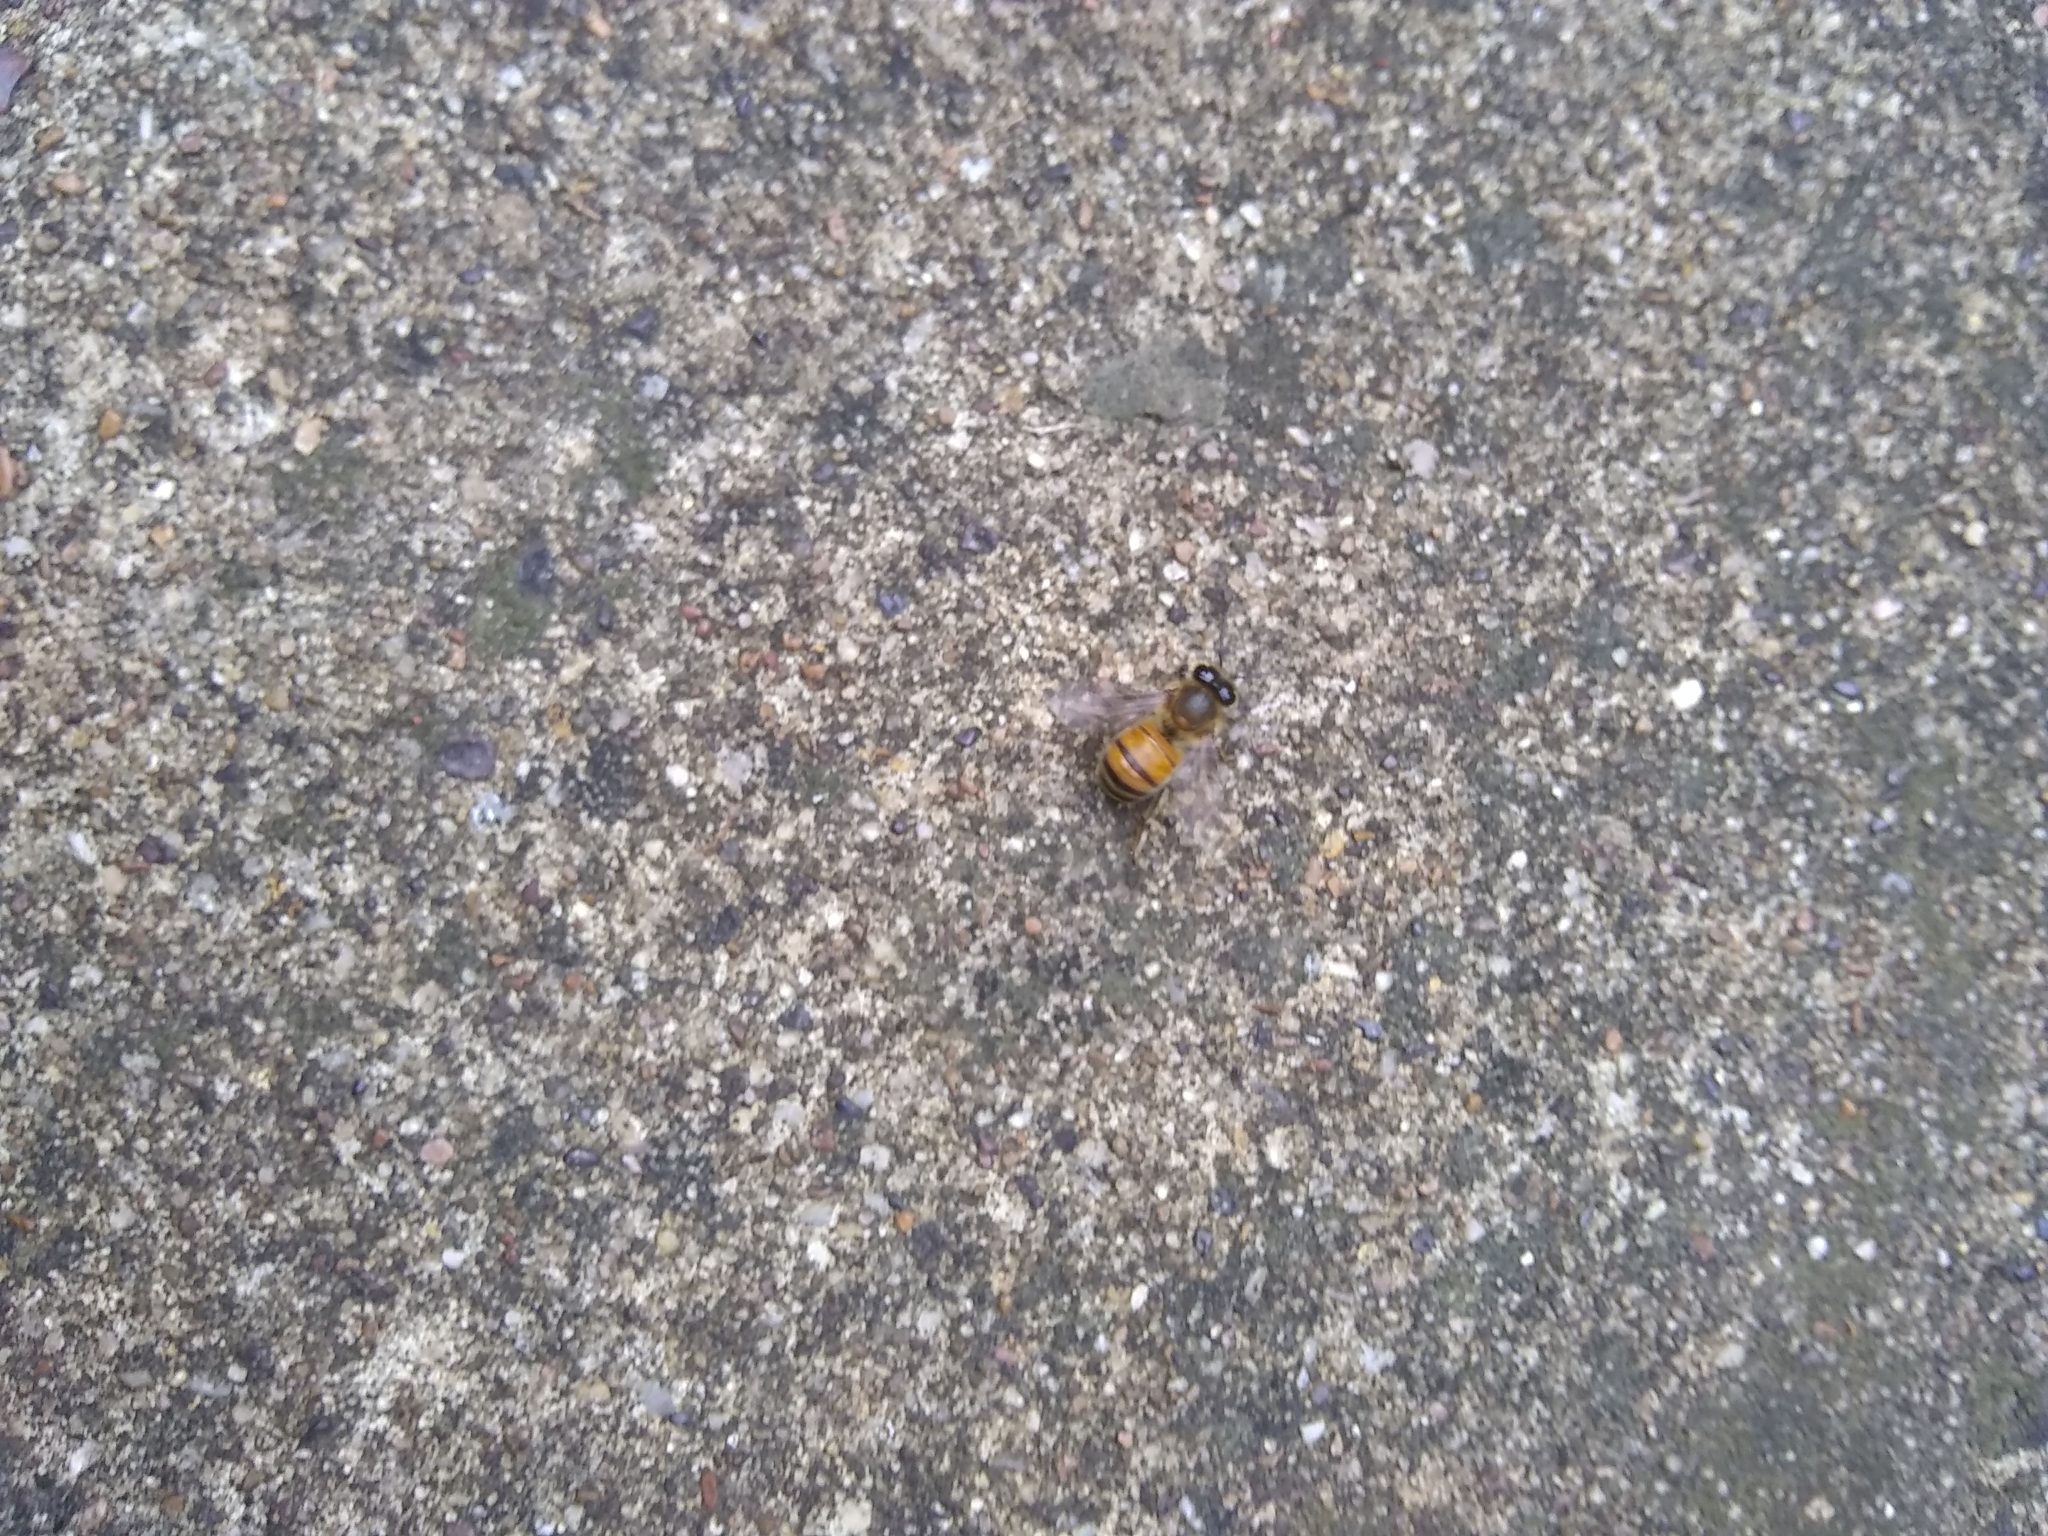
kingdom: Animalia
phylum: Arthropoda
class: Insecta
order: Hymenoptera
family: Apidae
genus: Apis
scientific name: Apis mellifera
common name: Honey bee
